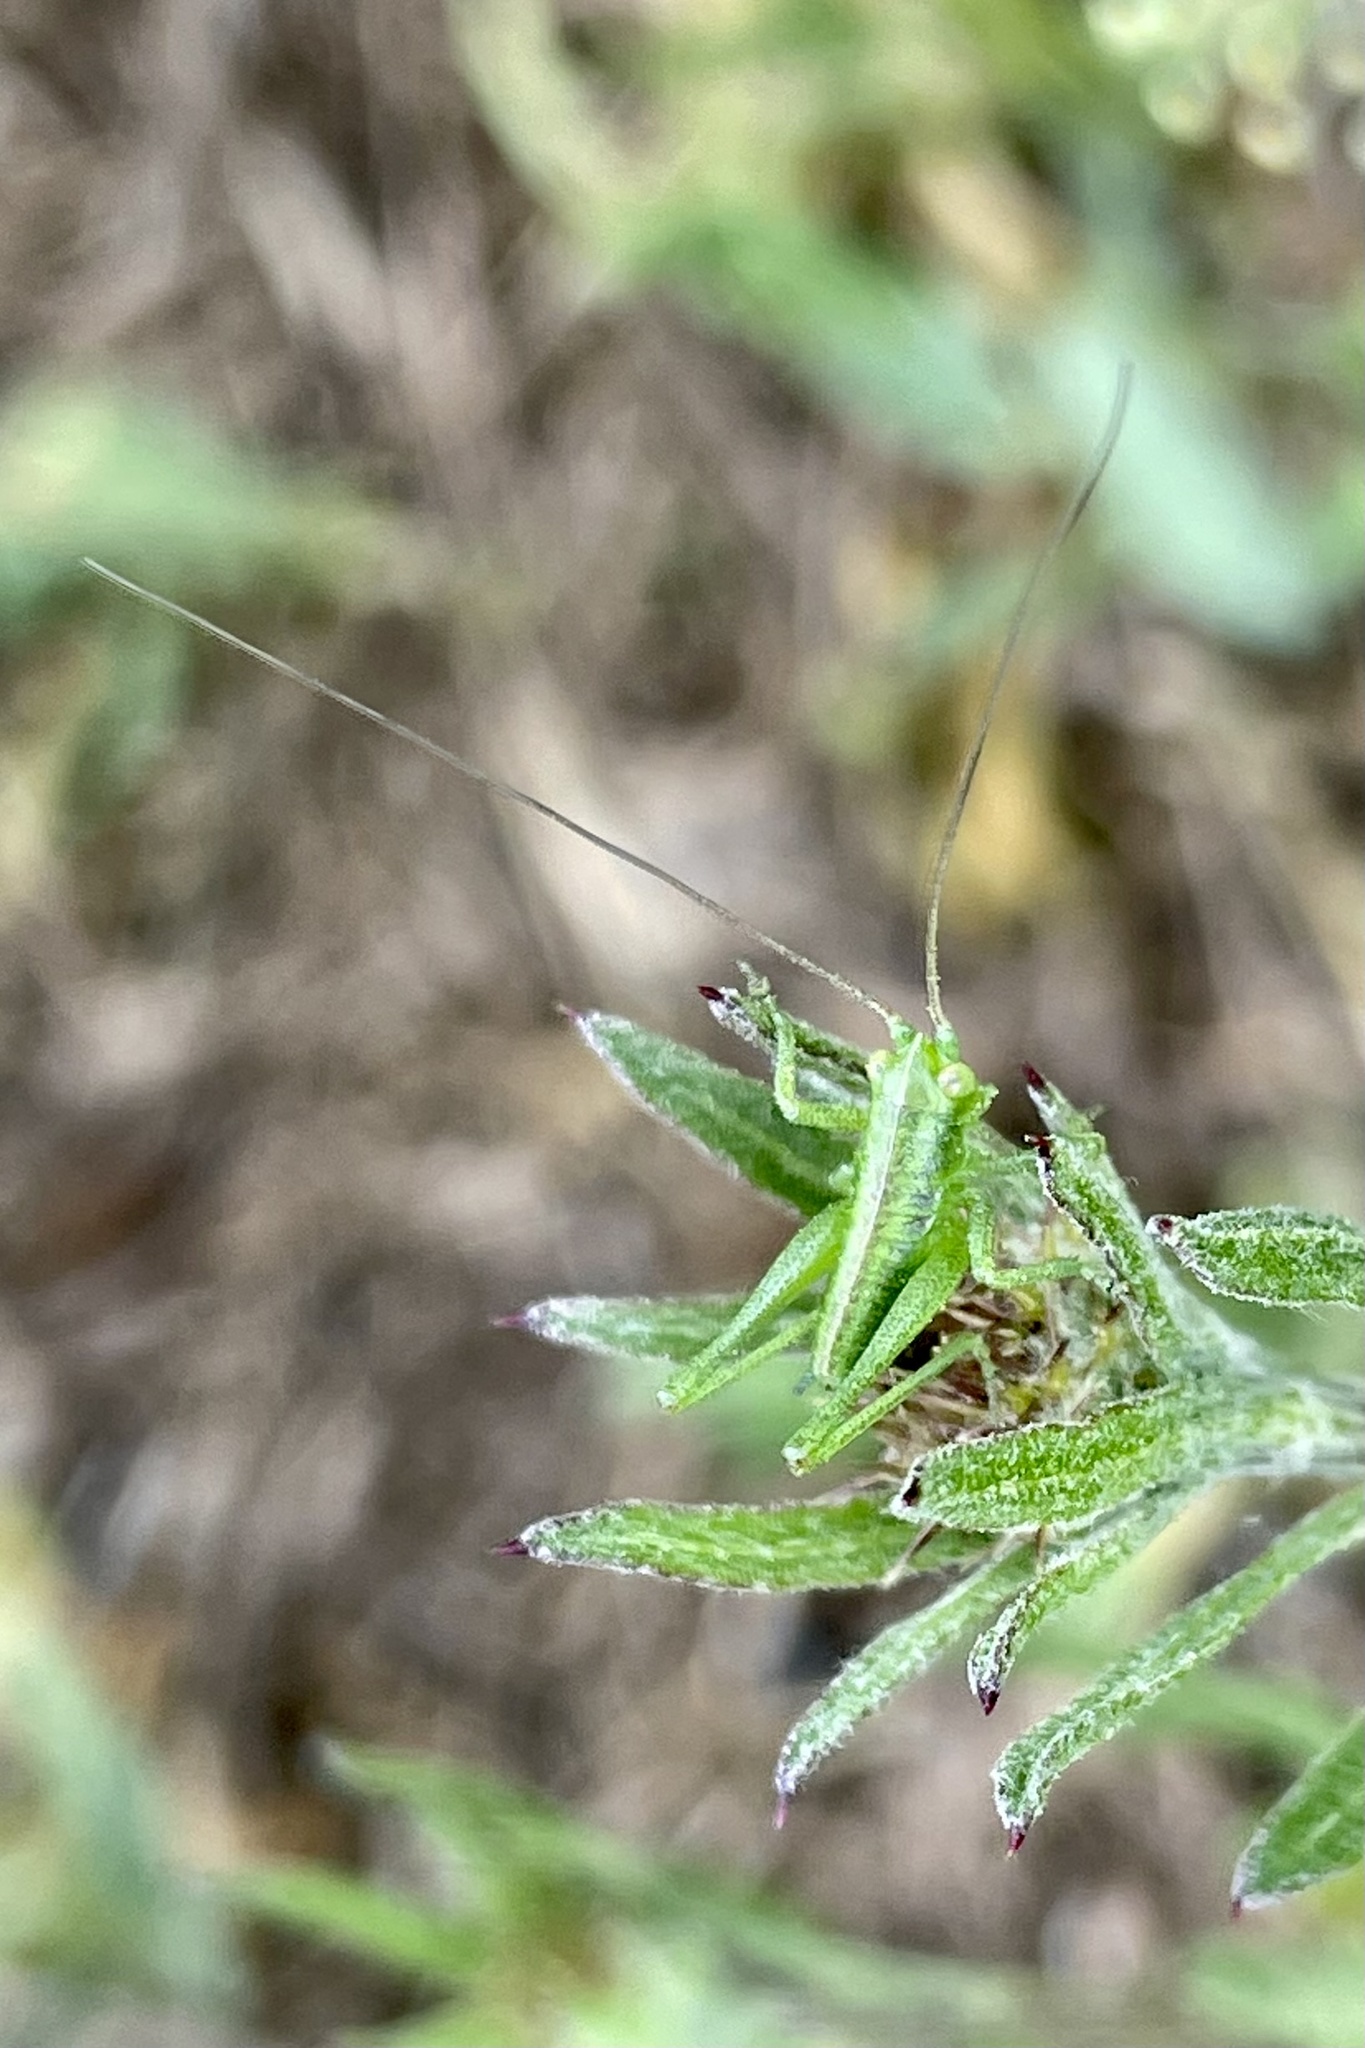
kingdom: Animalia
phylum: Arthropoda
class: Insecta
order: Orthoptera
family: Tettigoniidae
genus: Tettigonia
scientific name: Tettigonia viridissima
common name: Great green bush-cricket
